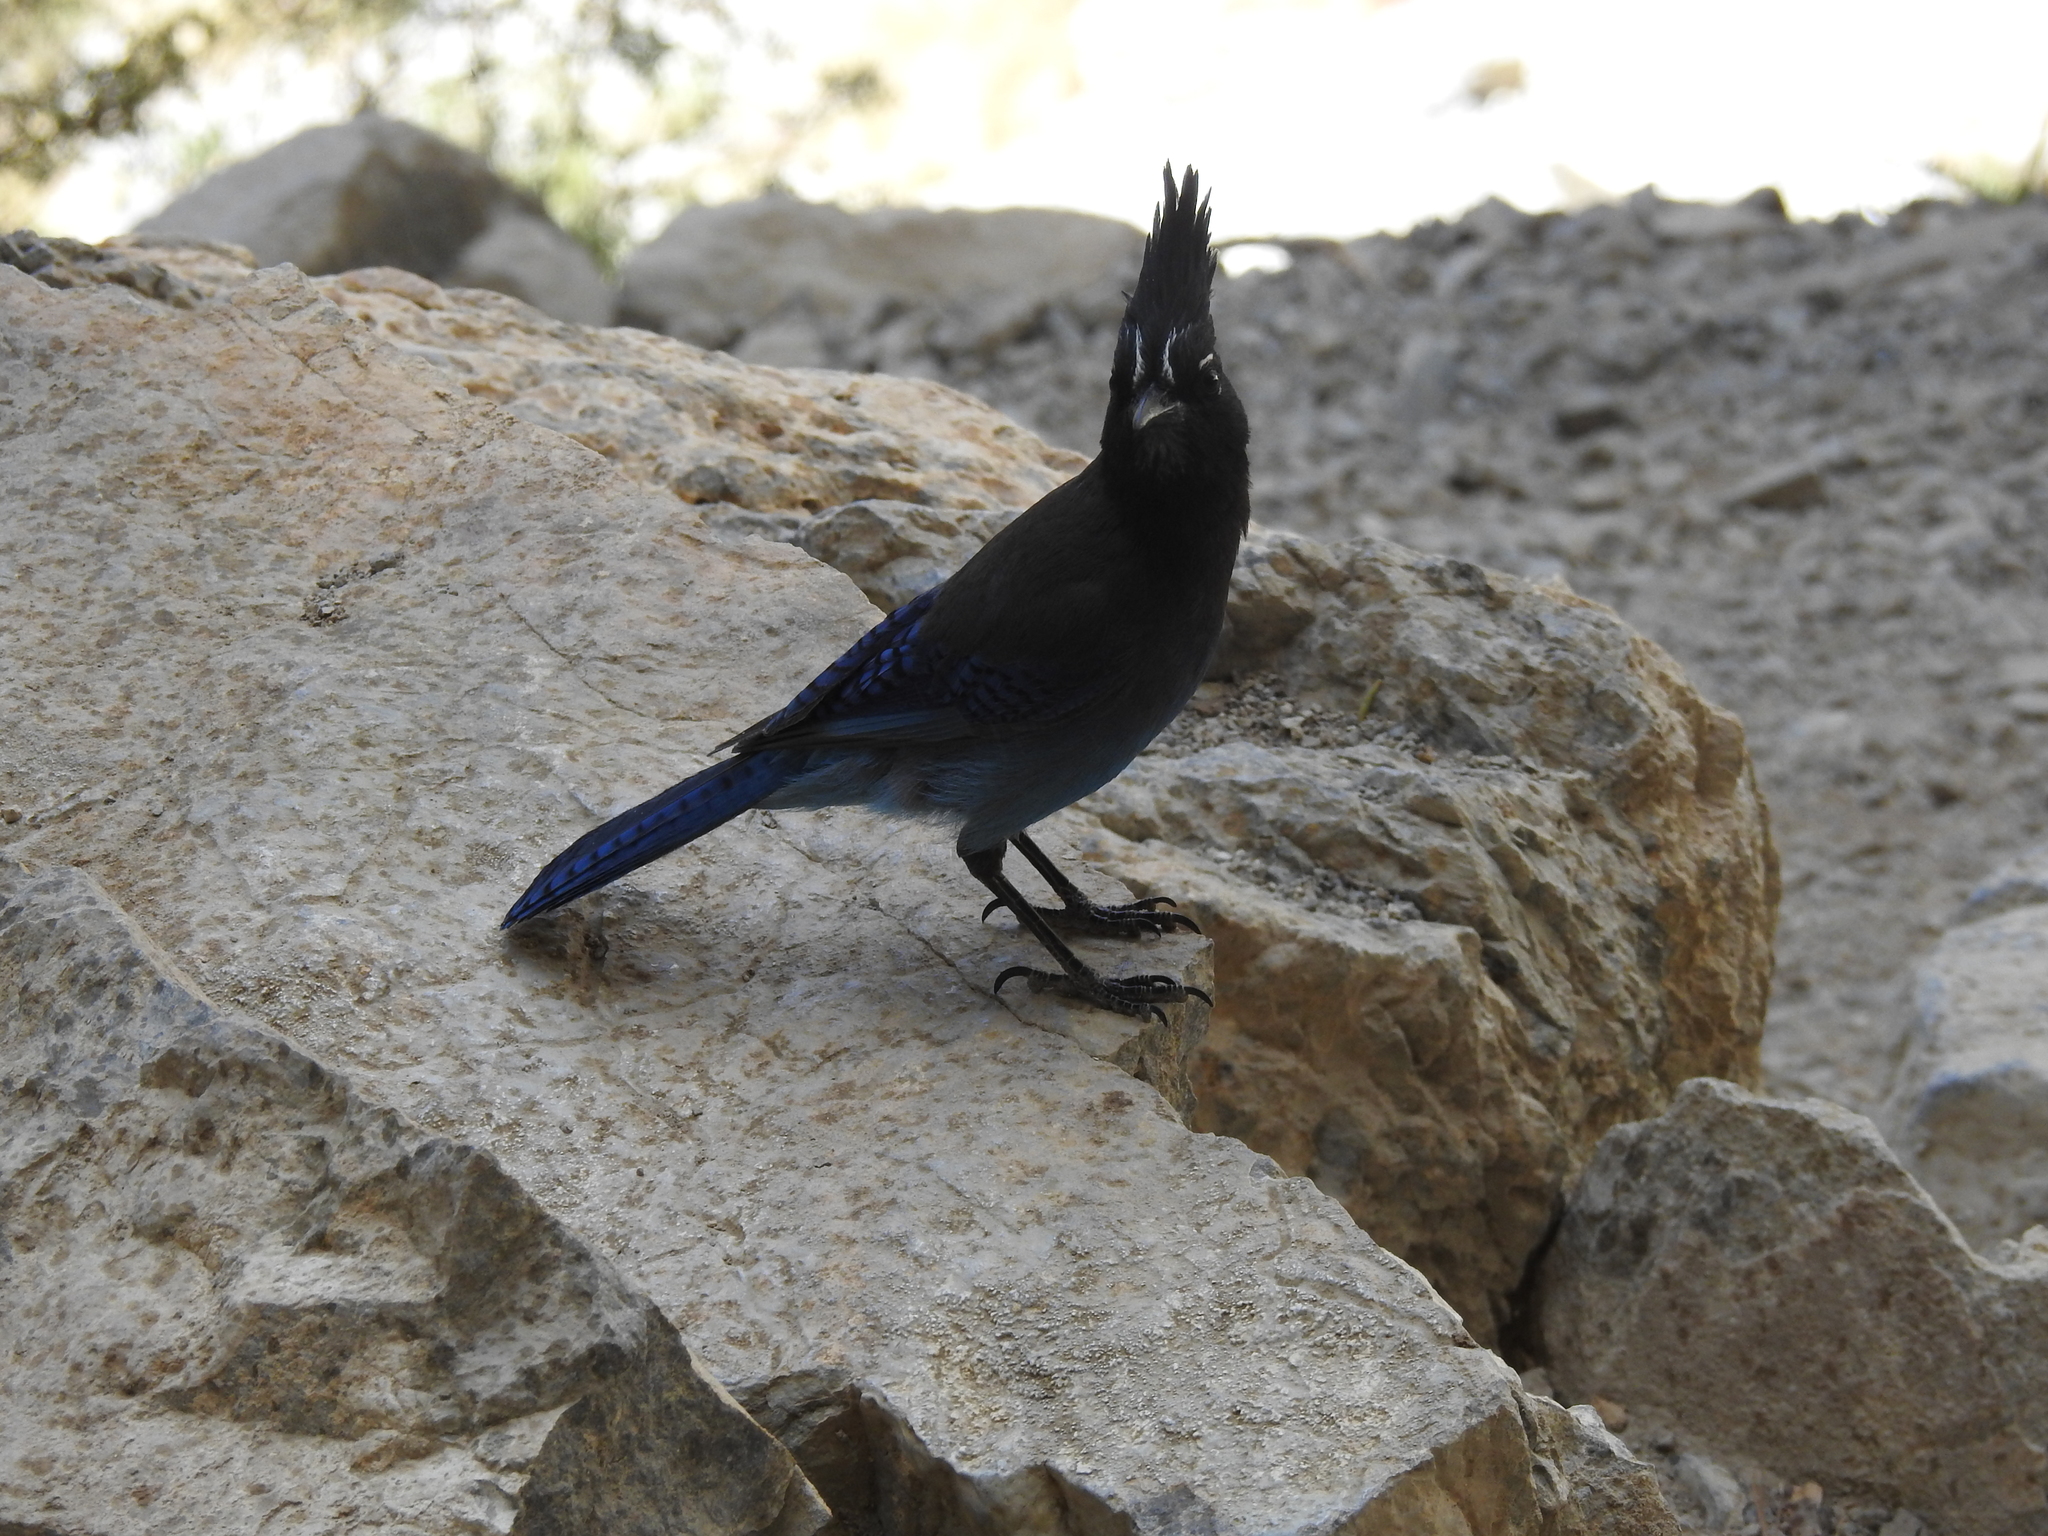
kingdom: Animalia
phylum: Chordata
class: Aves
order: Passeriformes
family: Corvidae
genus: Cyanocitta
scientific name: Cyanocitta stelleri
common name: Steller's jay
